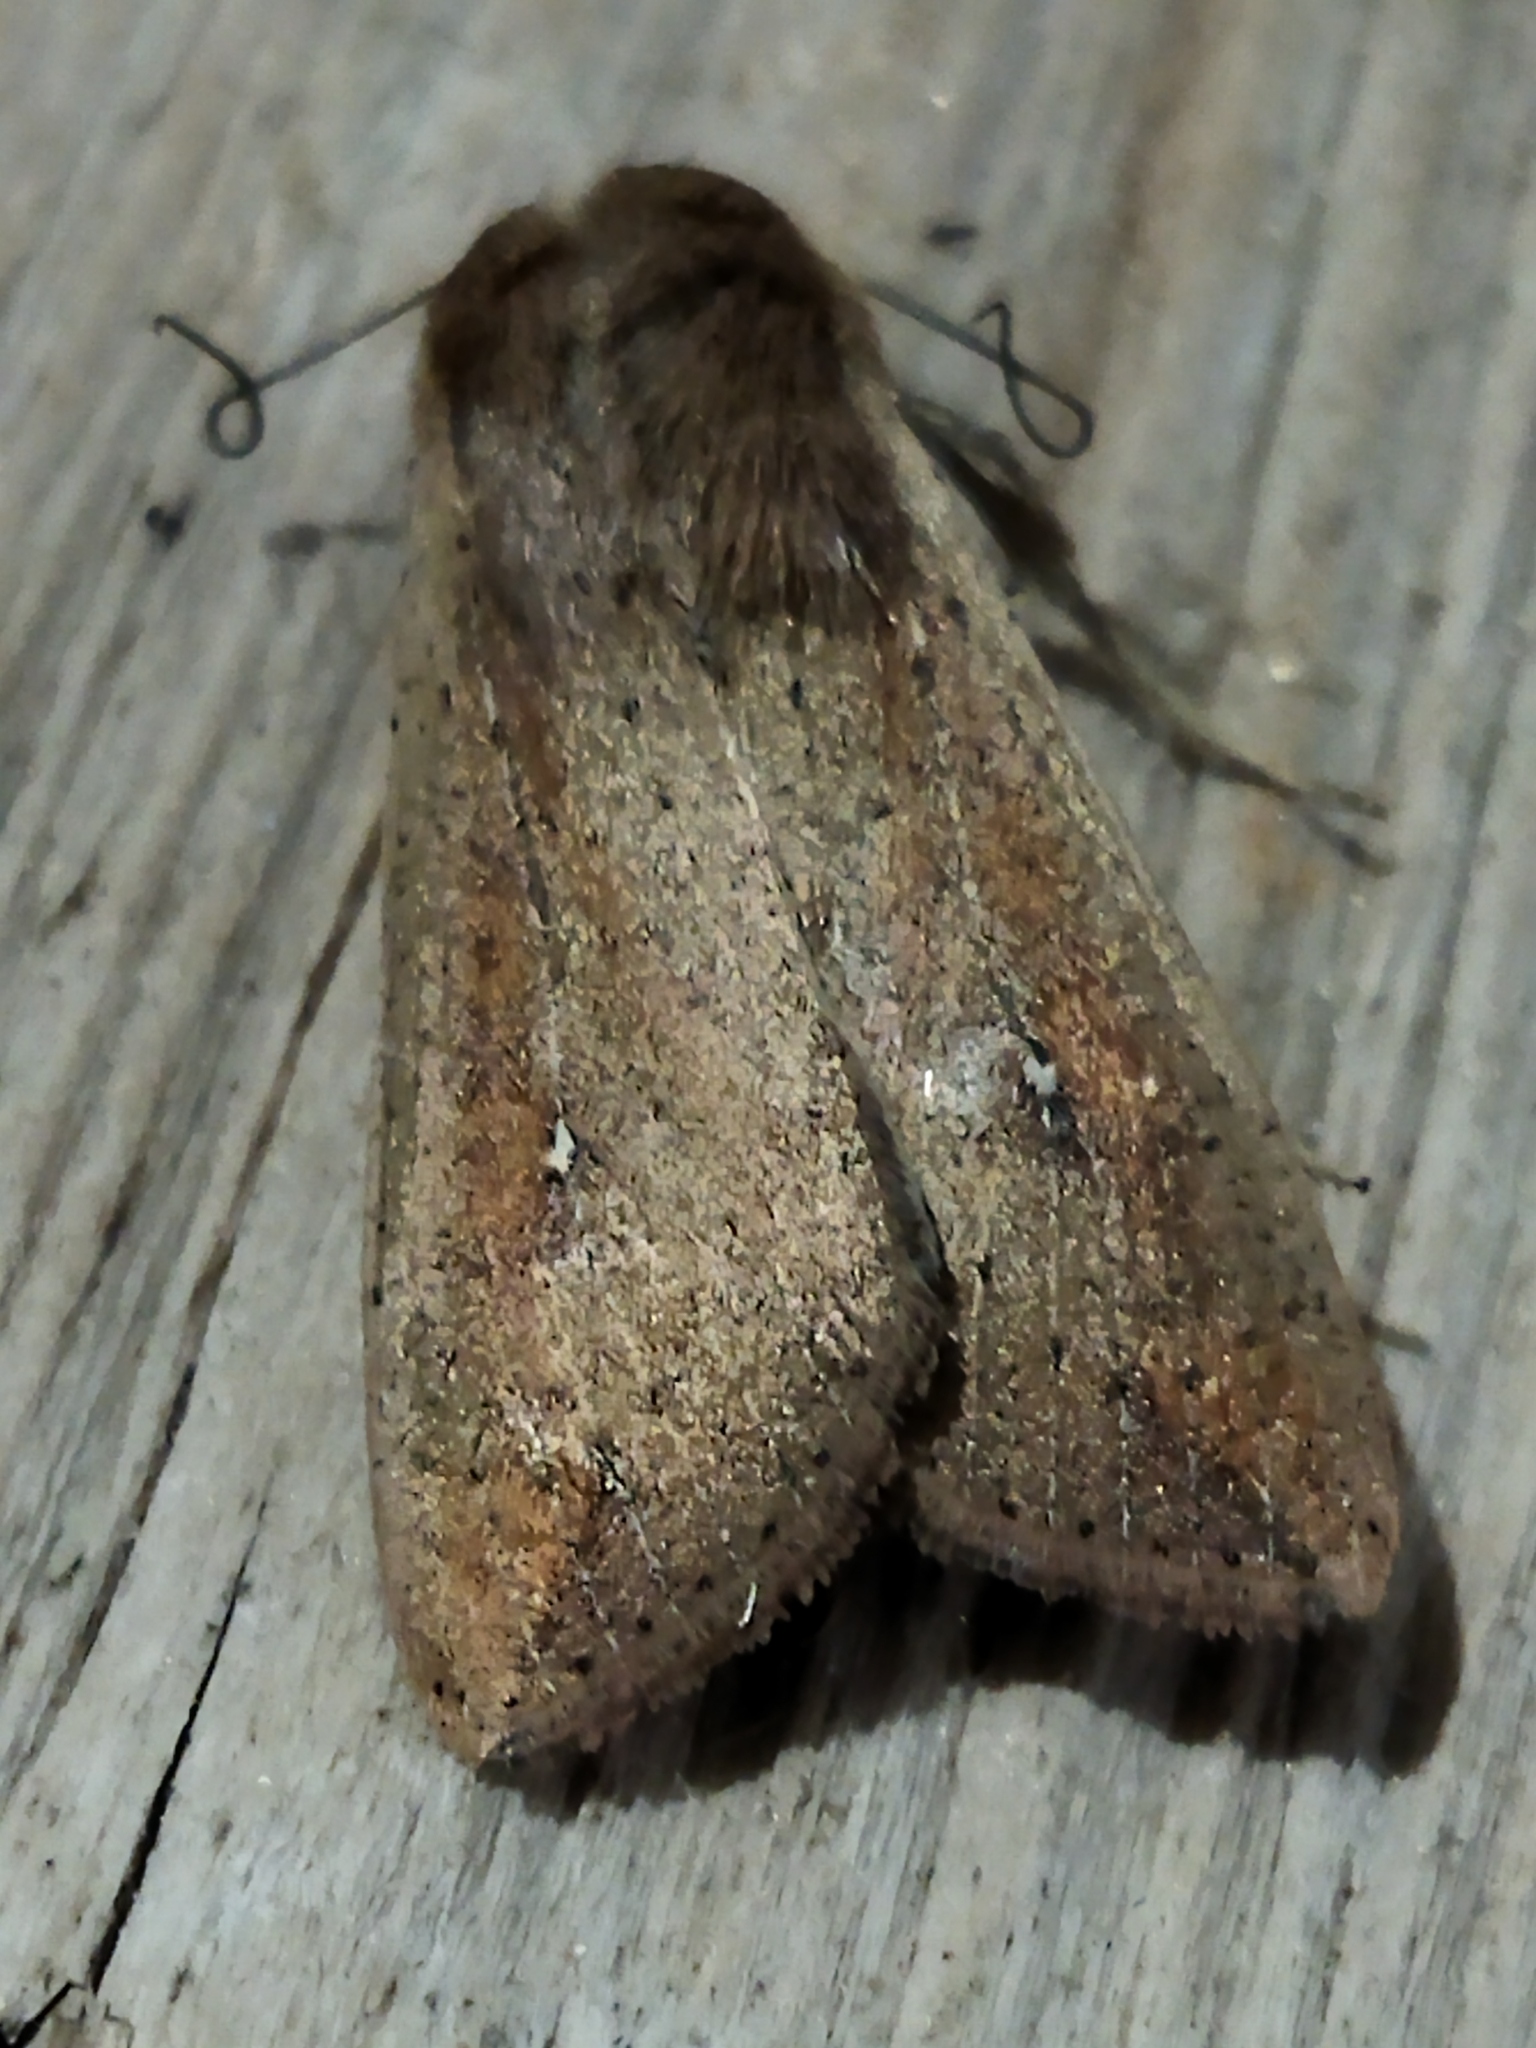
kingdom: Animalia
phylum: Arthropoda
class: Insecta
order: Lepidoptera
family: Noctuidae
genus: Mythimna
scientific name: Mythimna unipuncta
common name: White-speck
